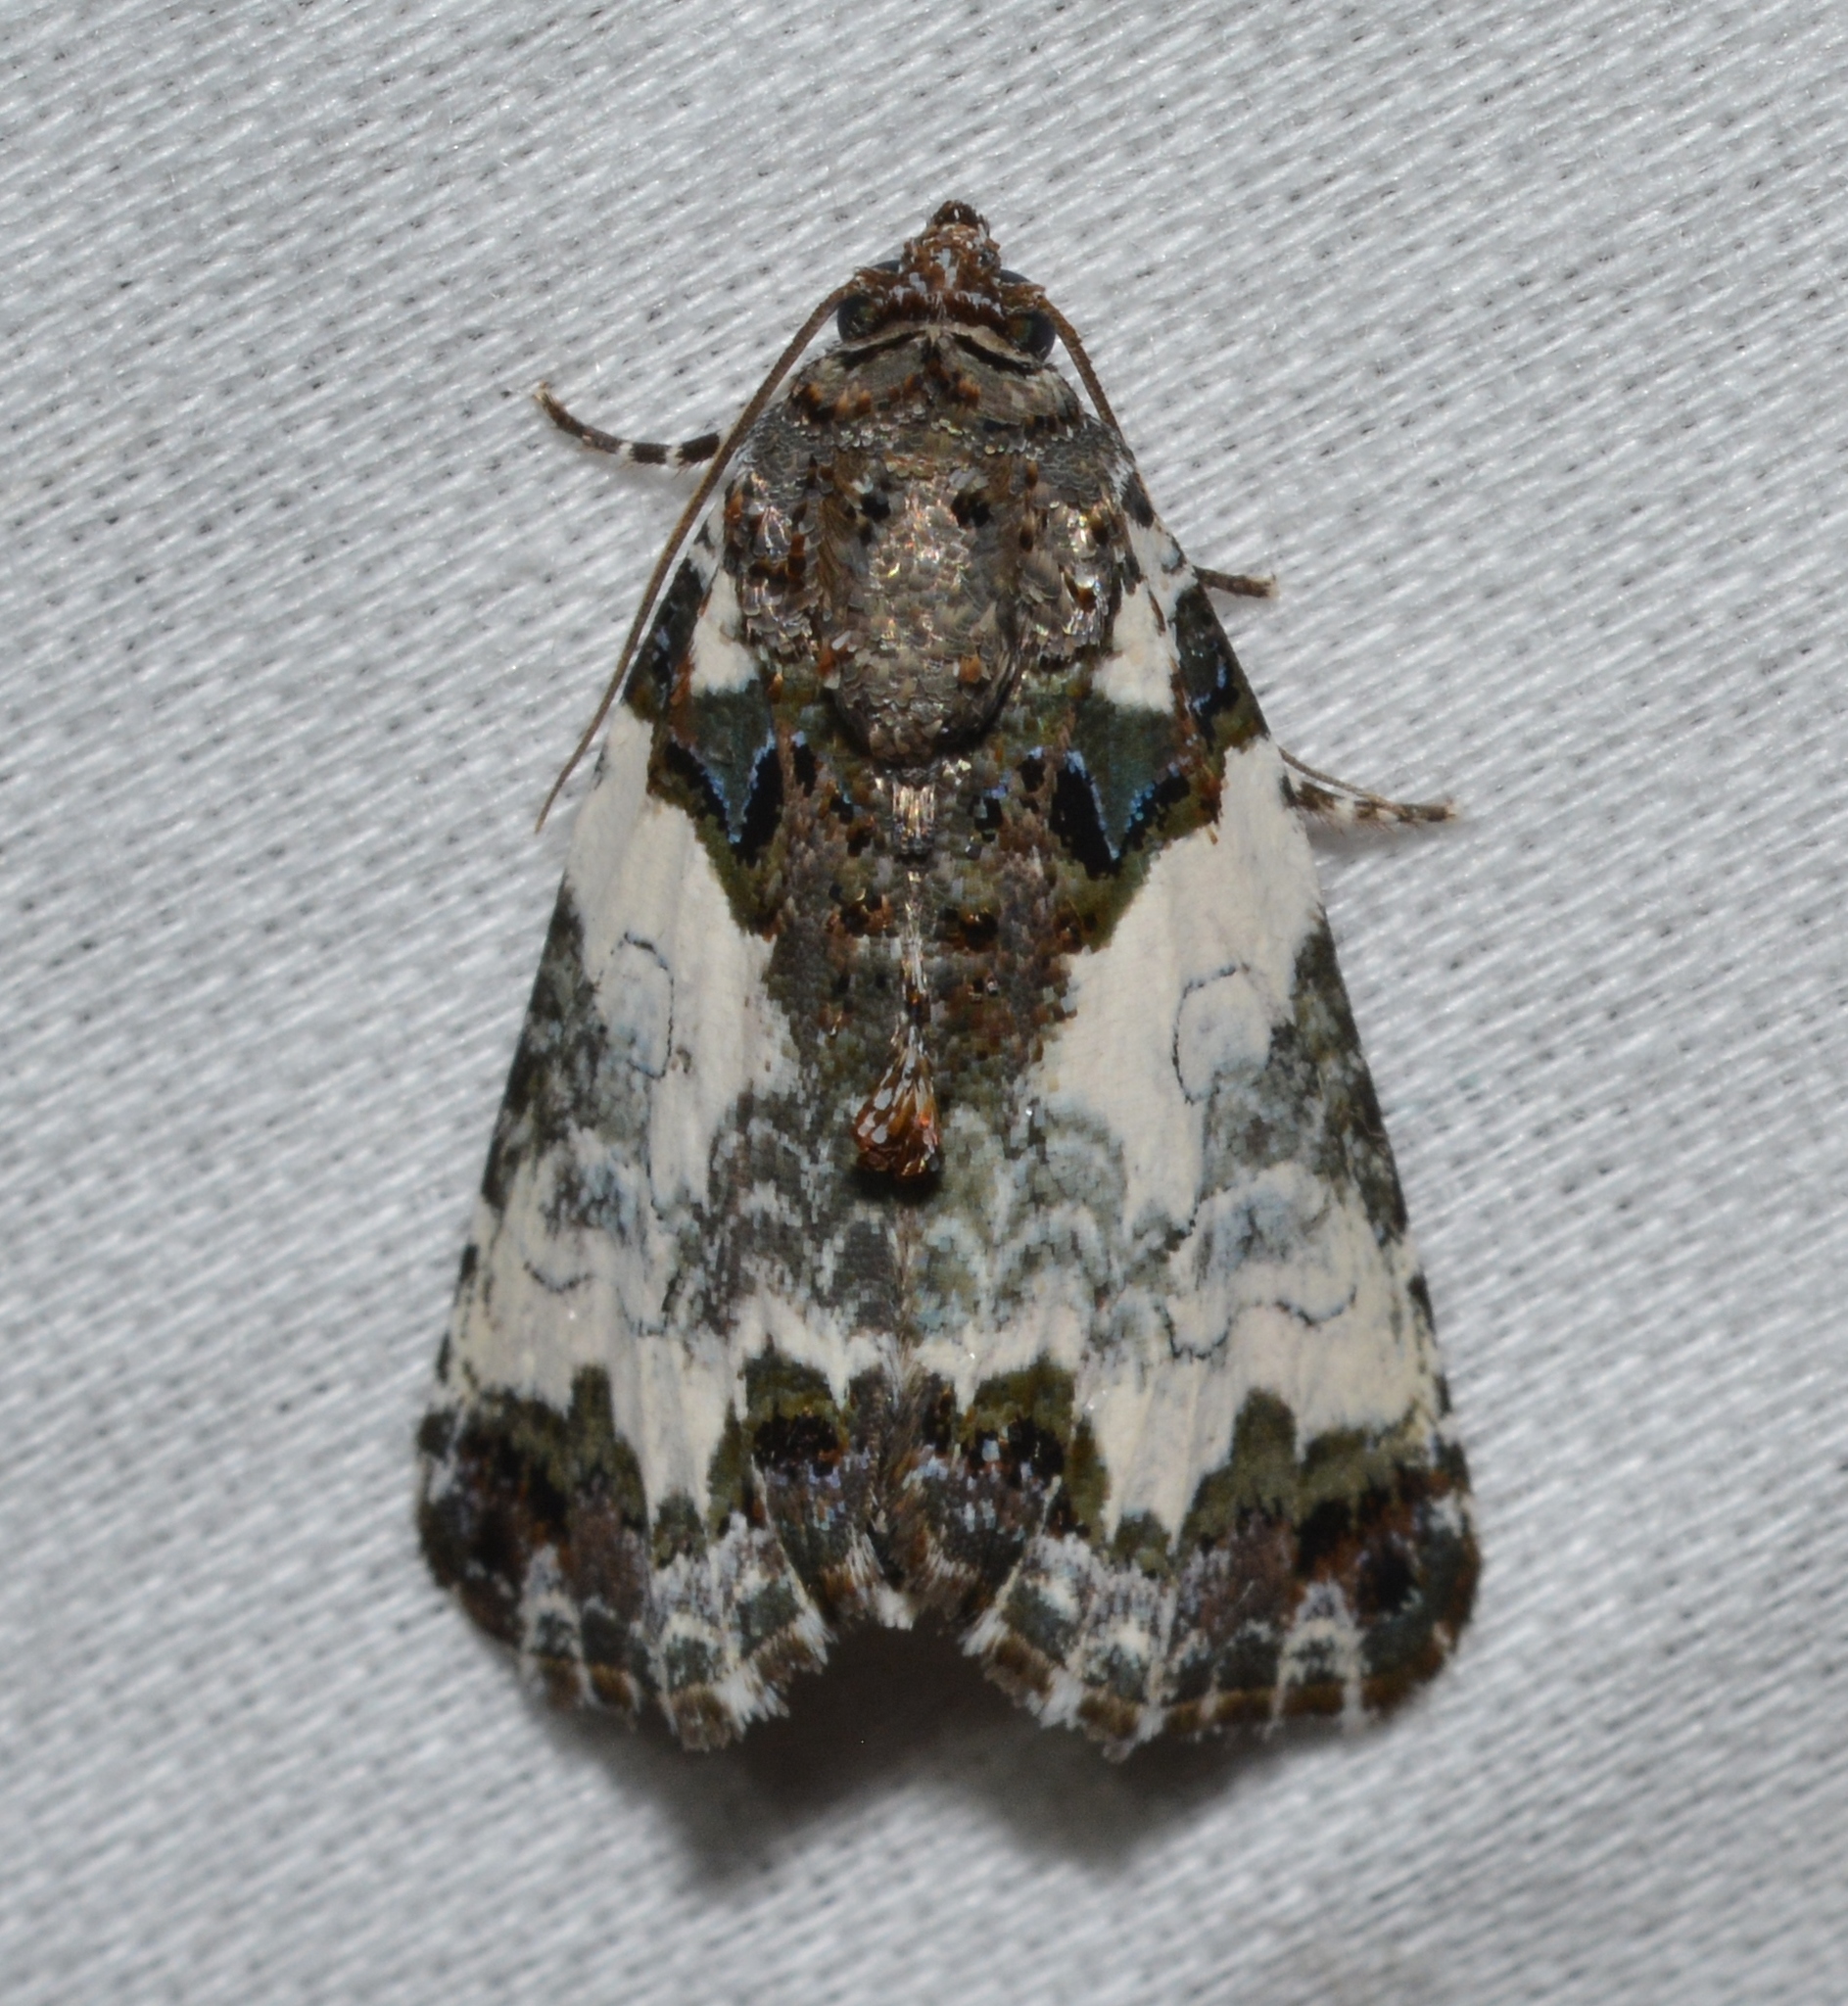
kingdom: Animalia
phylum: Arthropoda
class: Insecta
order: Lepidoptera
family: Noctuidae
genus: Cerma
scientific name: Cerma cerintha
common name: Tufted bird-dropping moth
